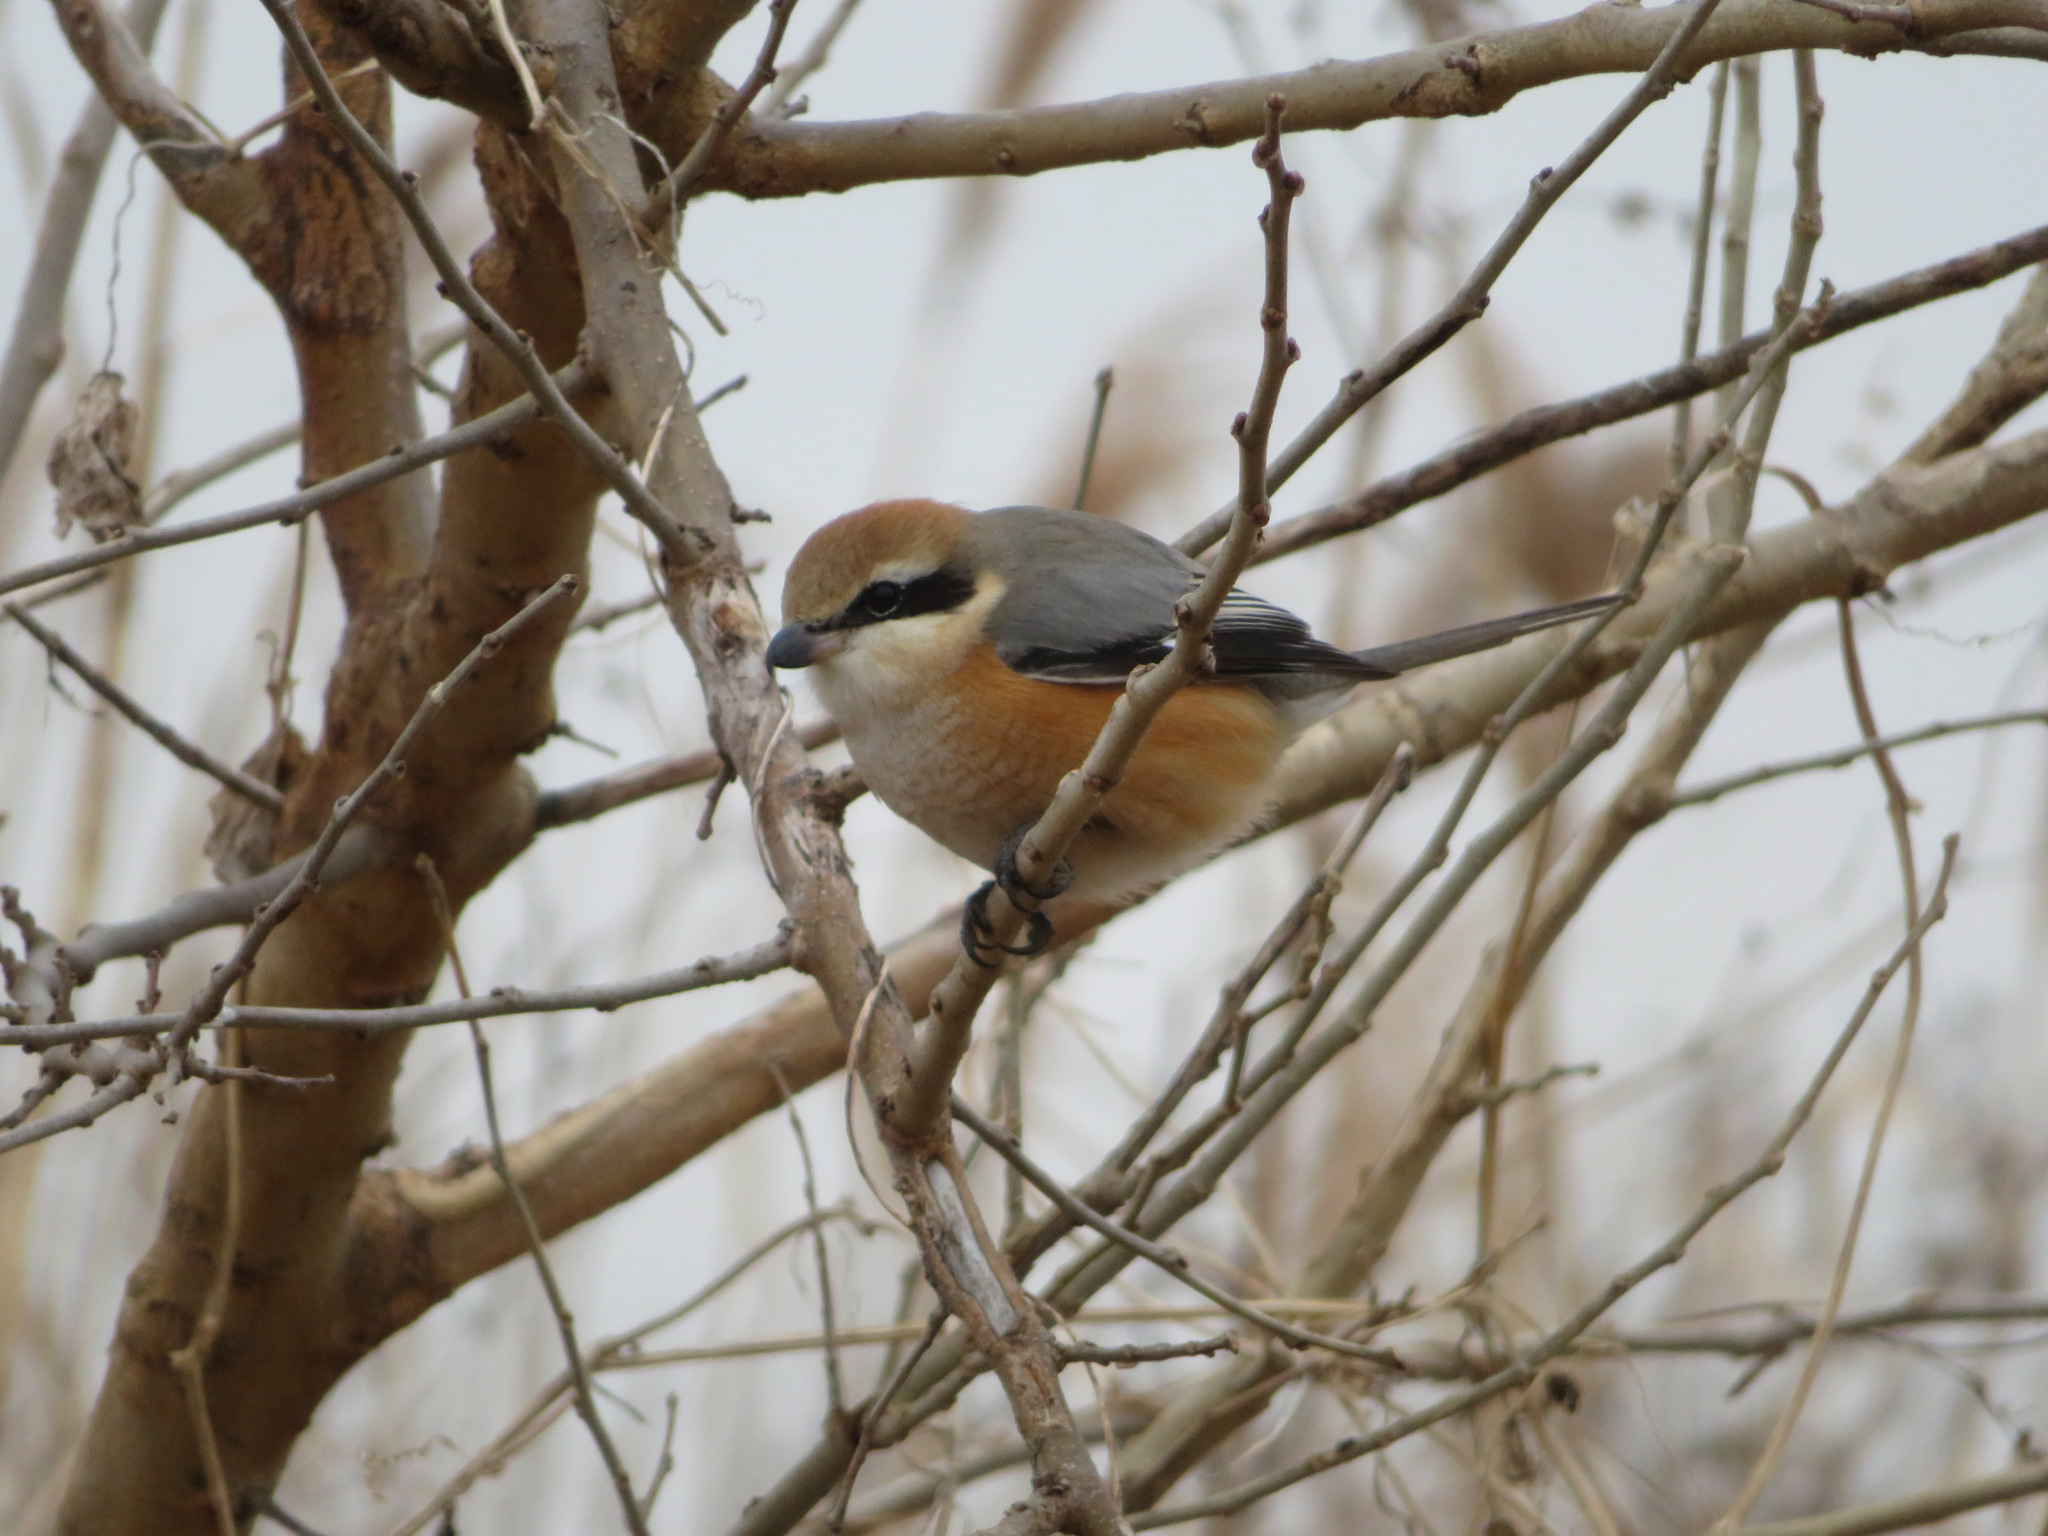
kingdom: Animalia
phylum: Chordata
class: Aves
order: Passeriformes
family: Laniidae
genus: Lanius
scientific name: Lanius bucephalus
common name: Bull-headed shrike
